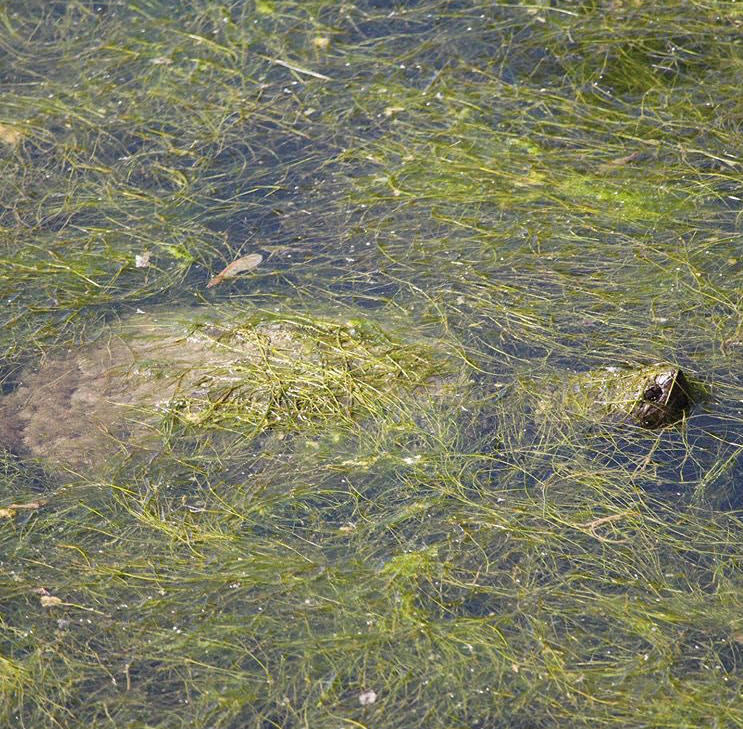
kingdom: Animalia
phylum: Chordata
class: Testudines
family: Chelydridae
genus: Chelydra
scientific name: Chelydra serpentina
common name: Common snapping turtle
